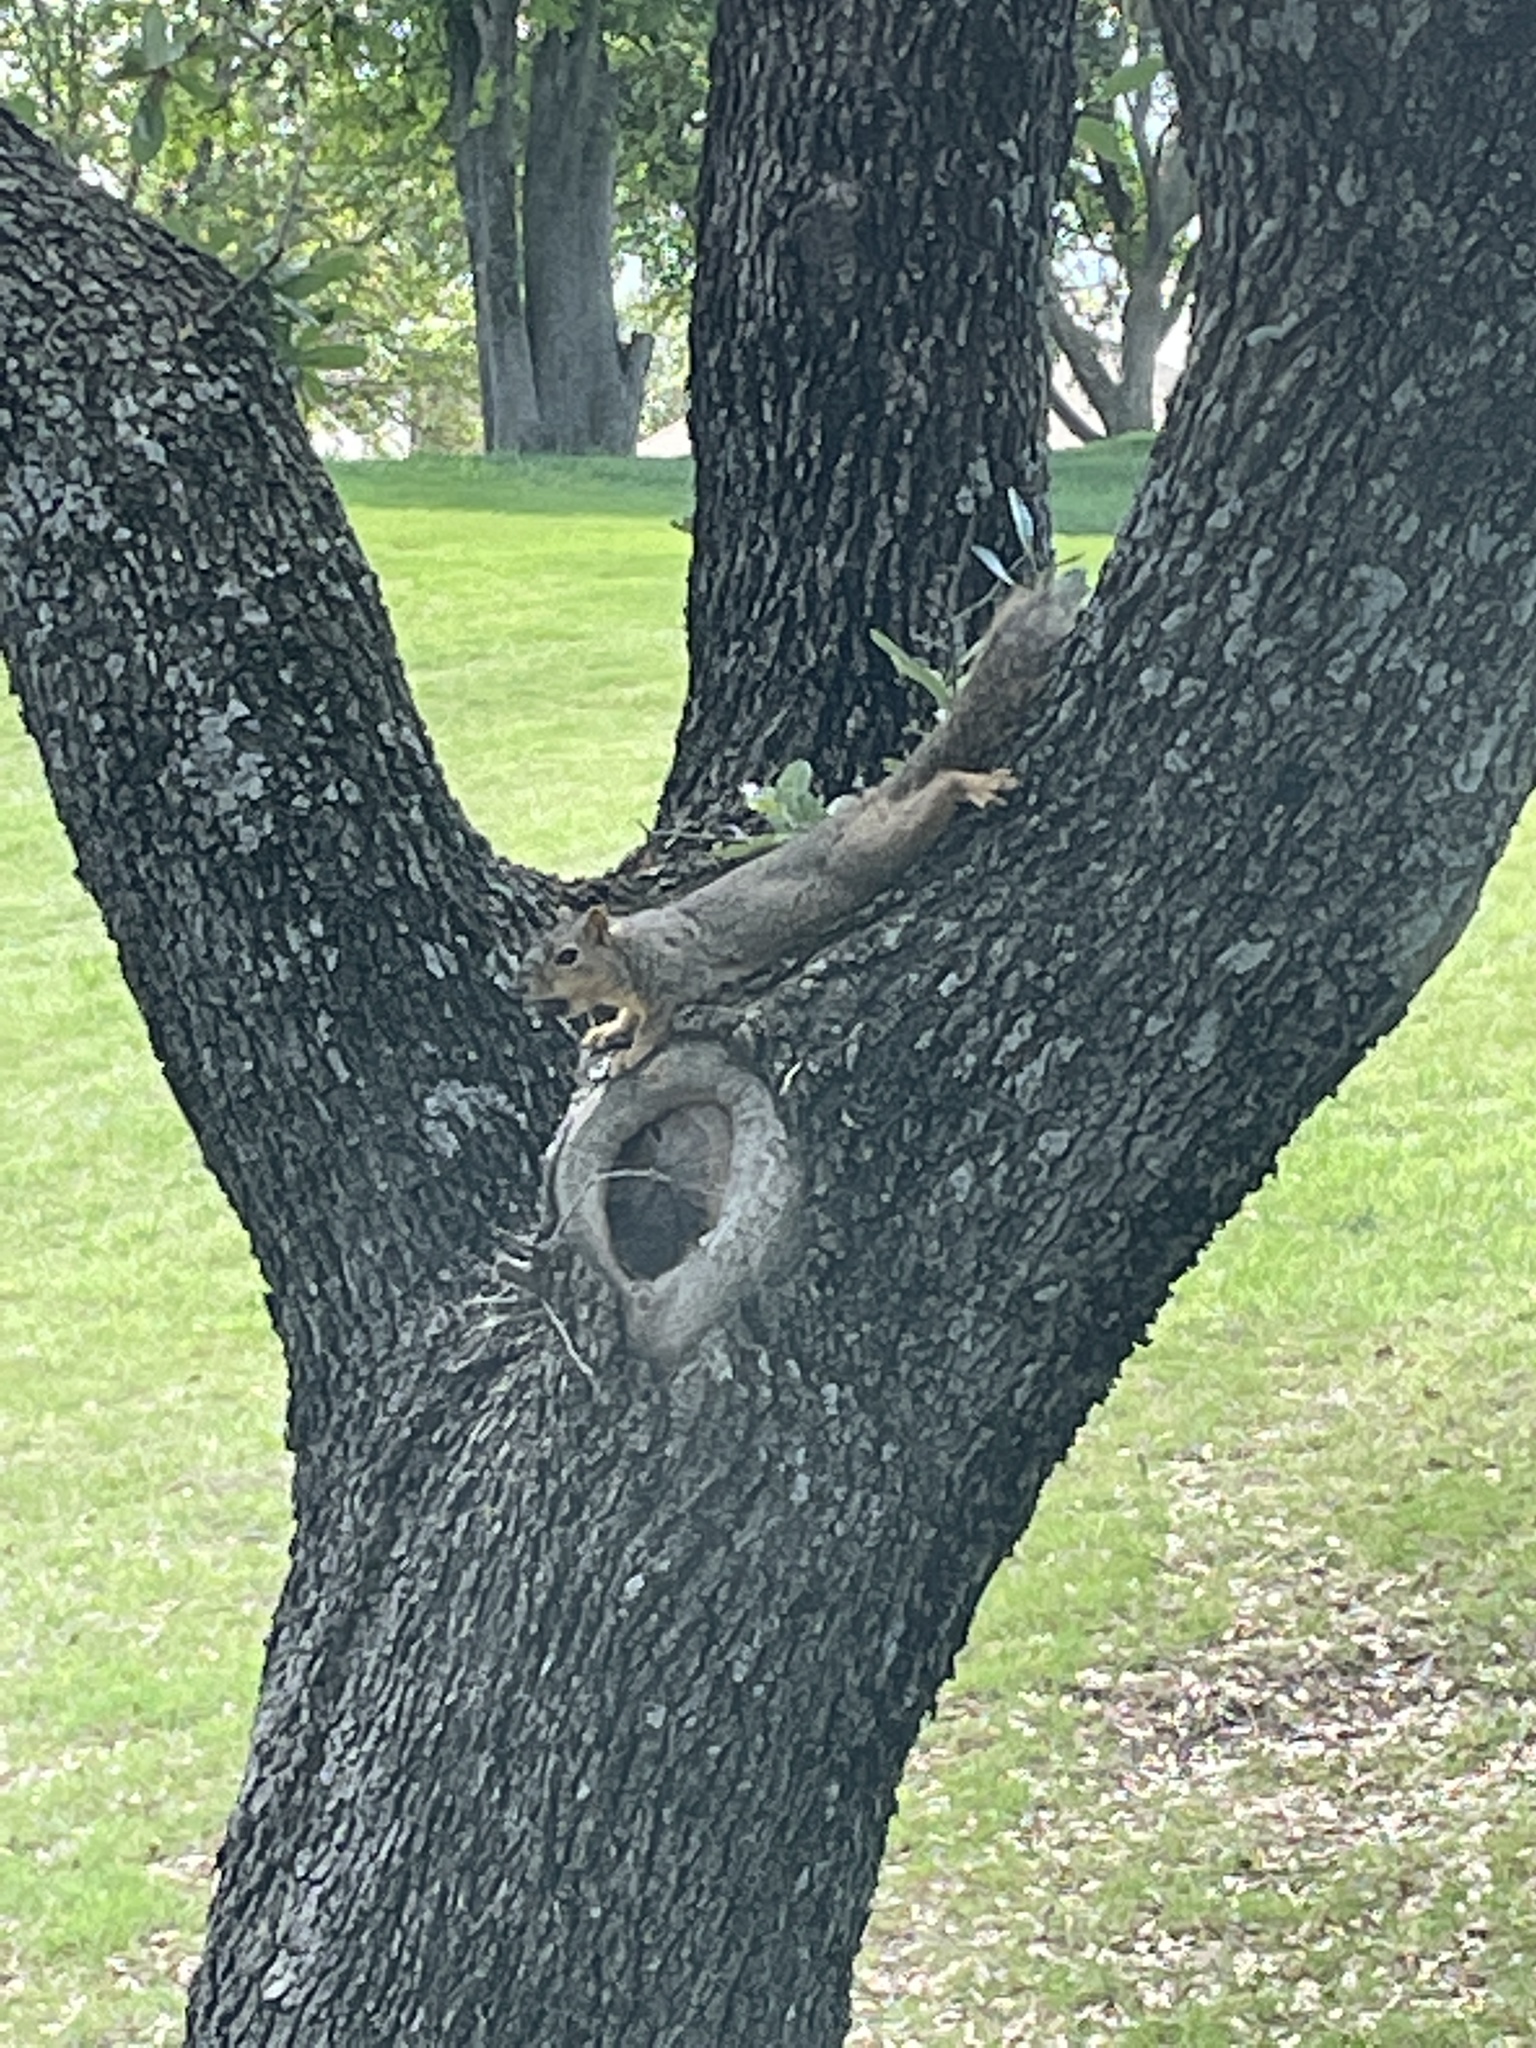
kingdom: Animalia
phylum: Chordata
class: Mammalia
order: Rodentia
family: Sciuridae
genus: Sciurus
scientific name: Sciurus niger
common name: Fox squirrel
